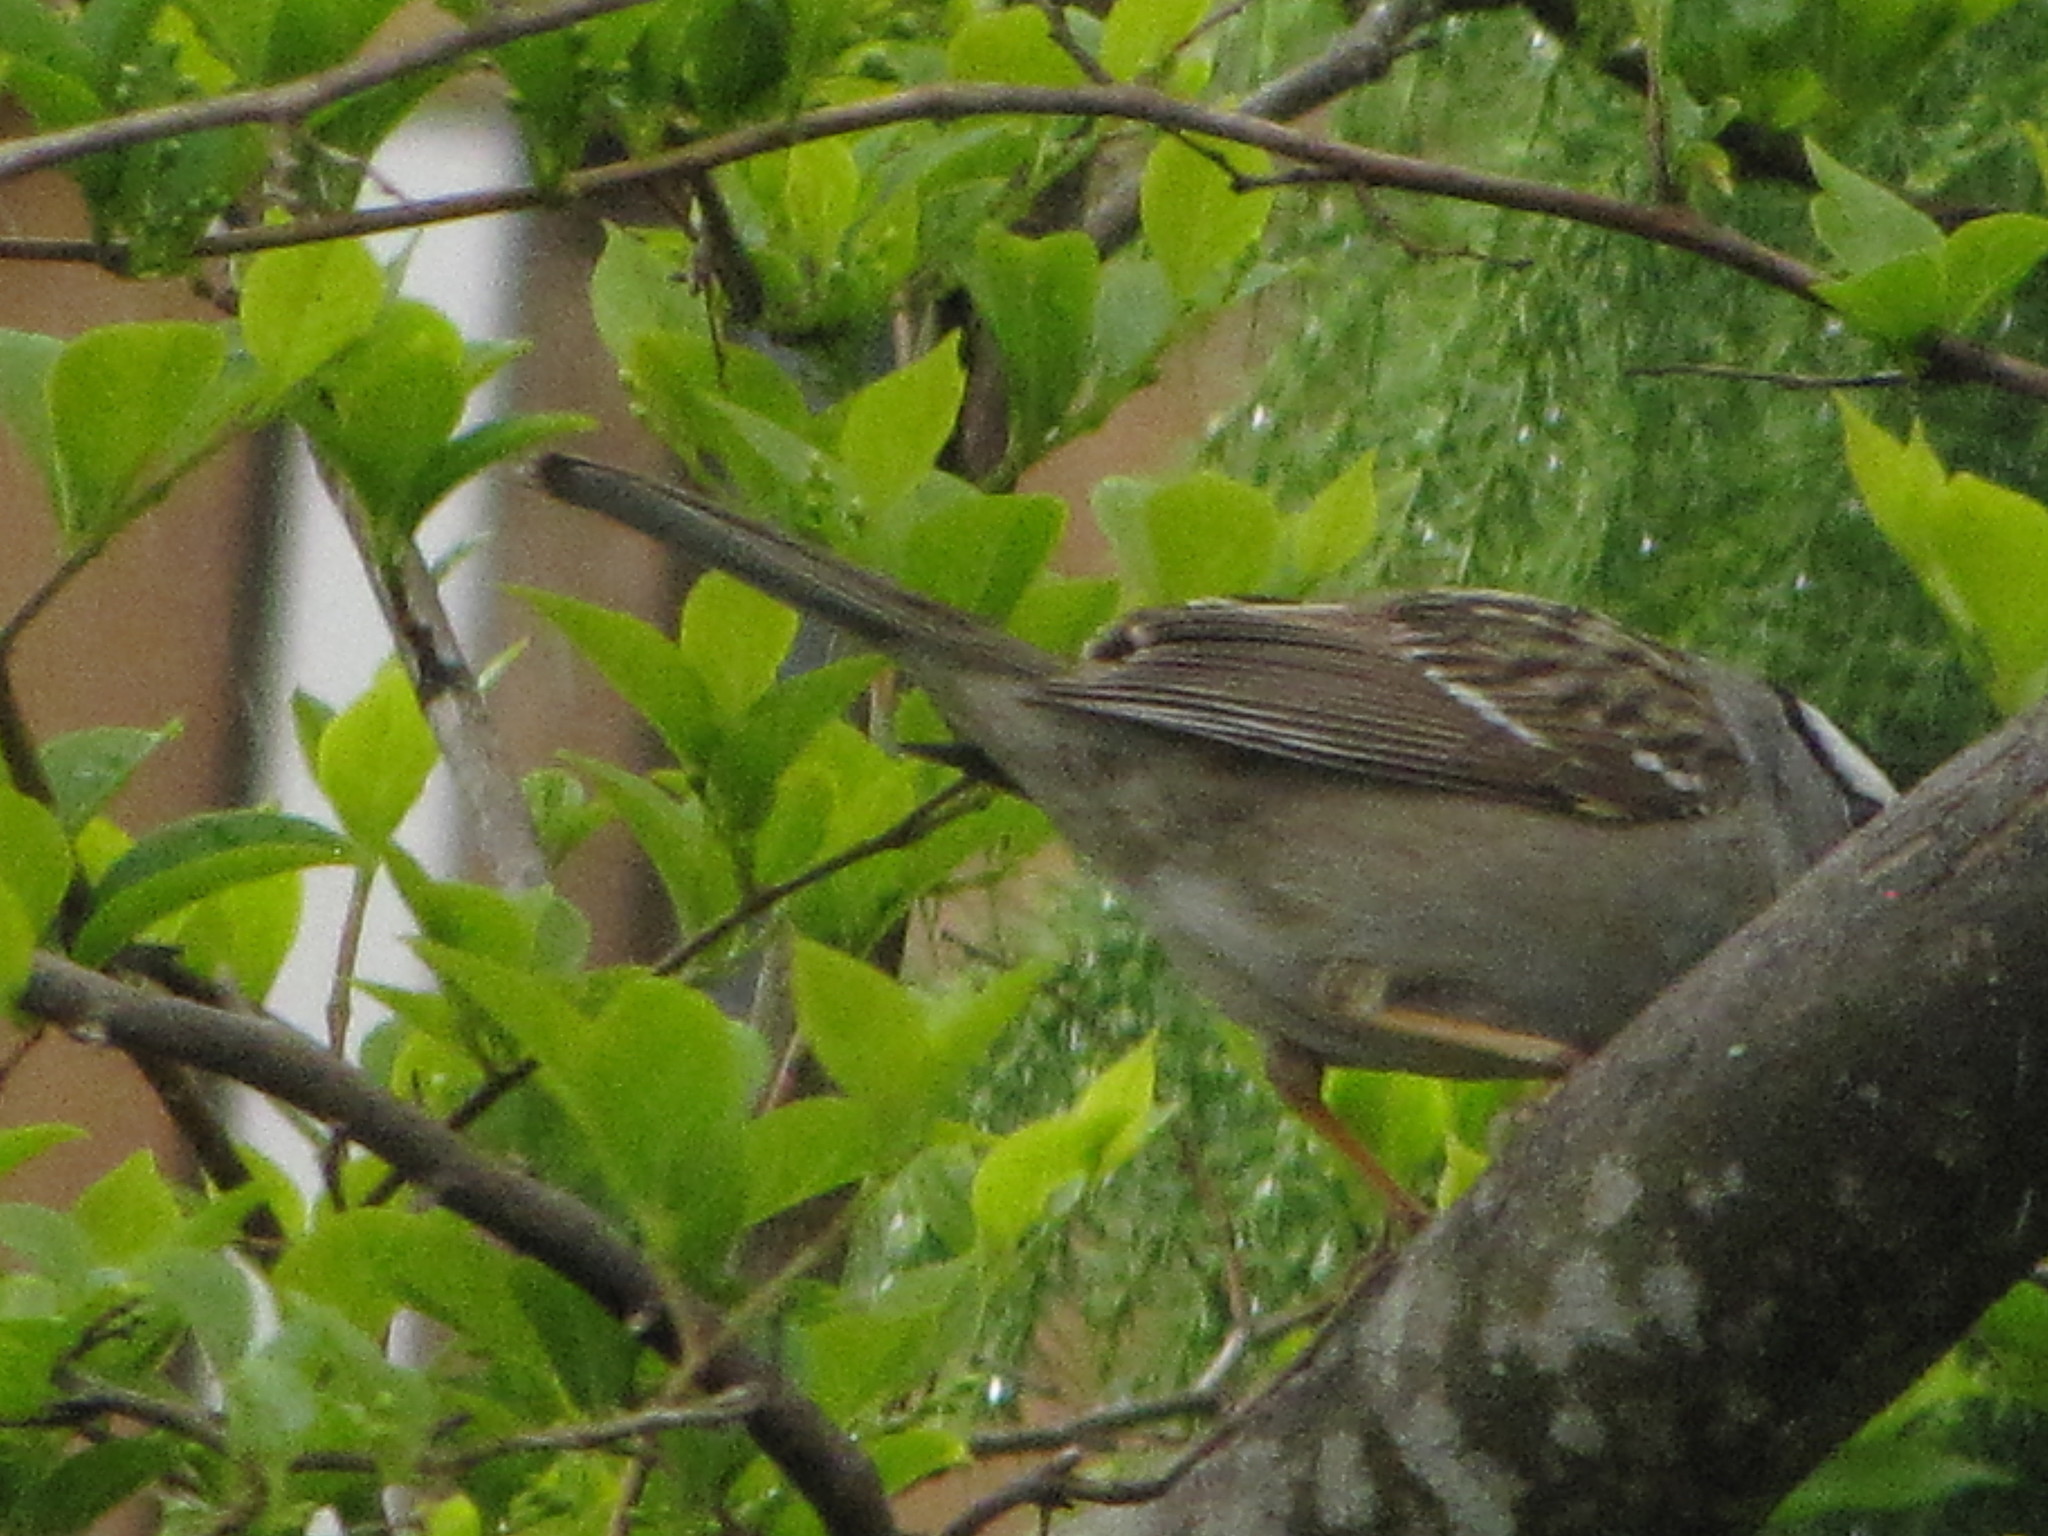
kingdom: Animalia
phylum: Chordata
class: Aves
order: Passeriformes
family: Passerellidae
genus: Zonotrichia
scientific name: Zonotrichia leucophrys
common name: White-crowned sparrow
